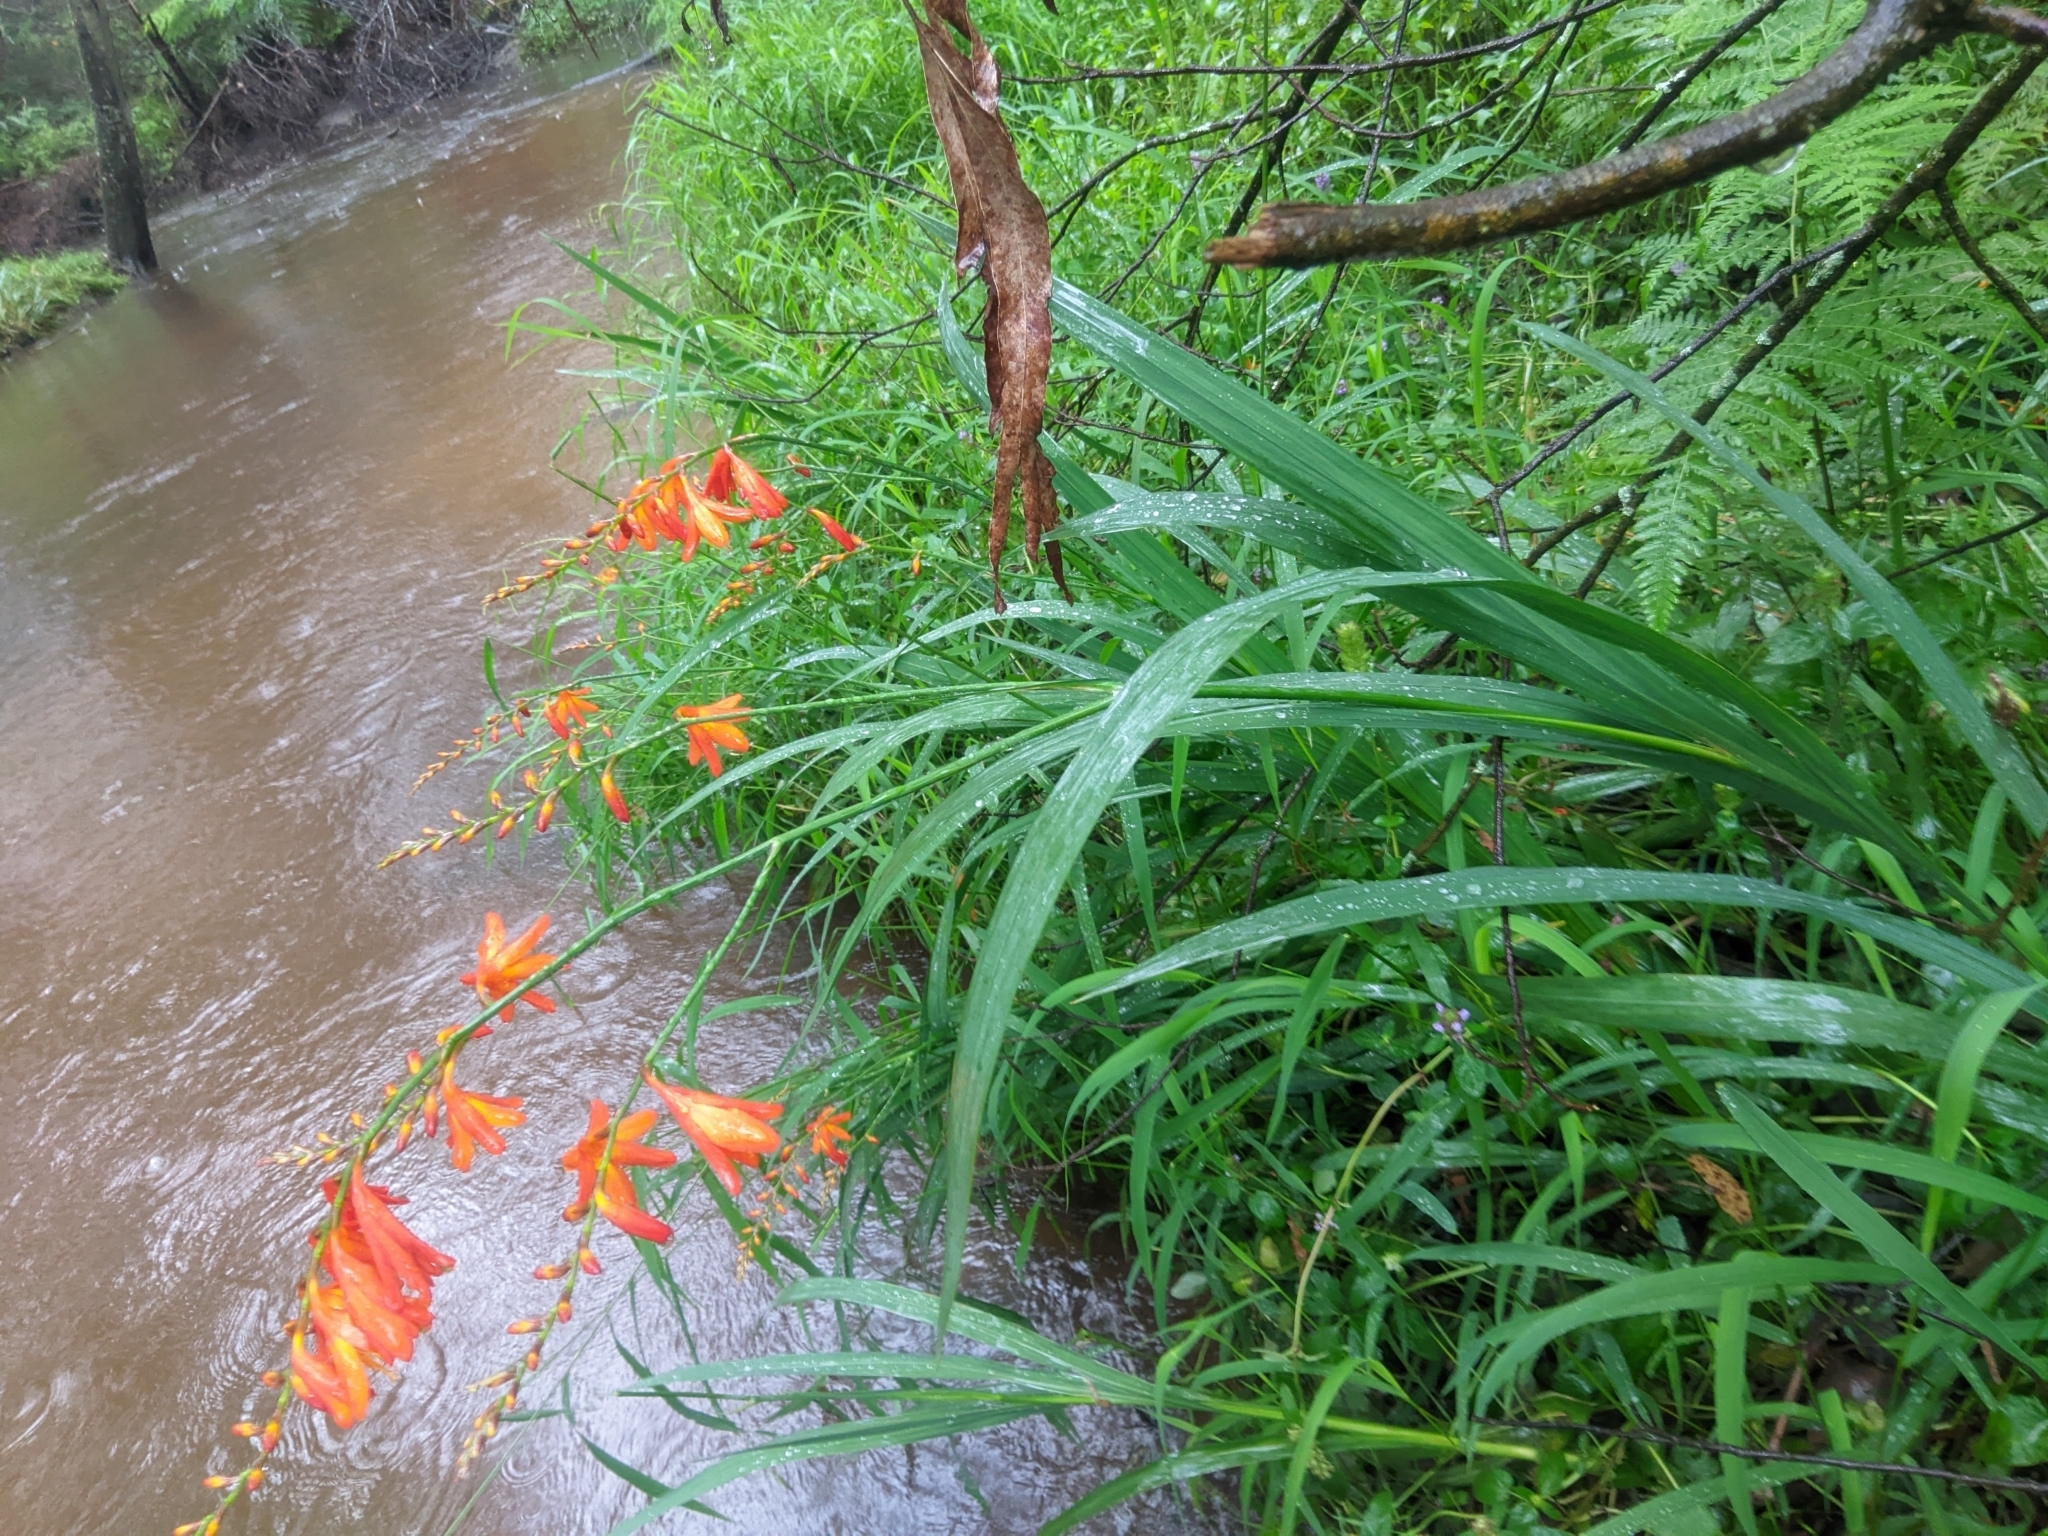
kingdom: Plantae
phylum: Tracheophyta
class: Liliopsida
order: Asparagales
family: Iridaceae
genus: Crocosmia
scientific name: Crocosmia crocosmiiflora
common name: Montbretia
